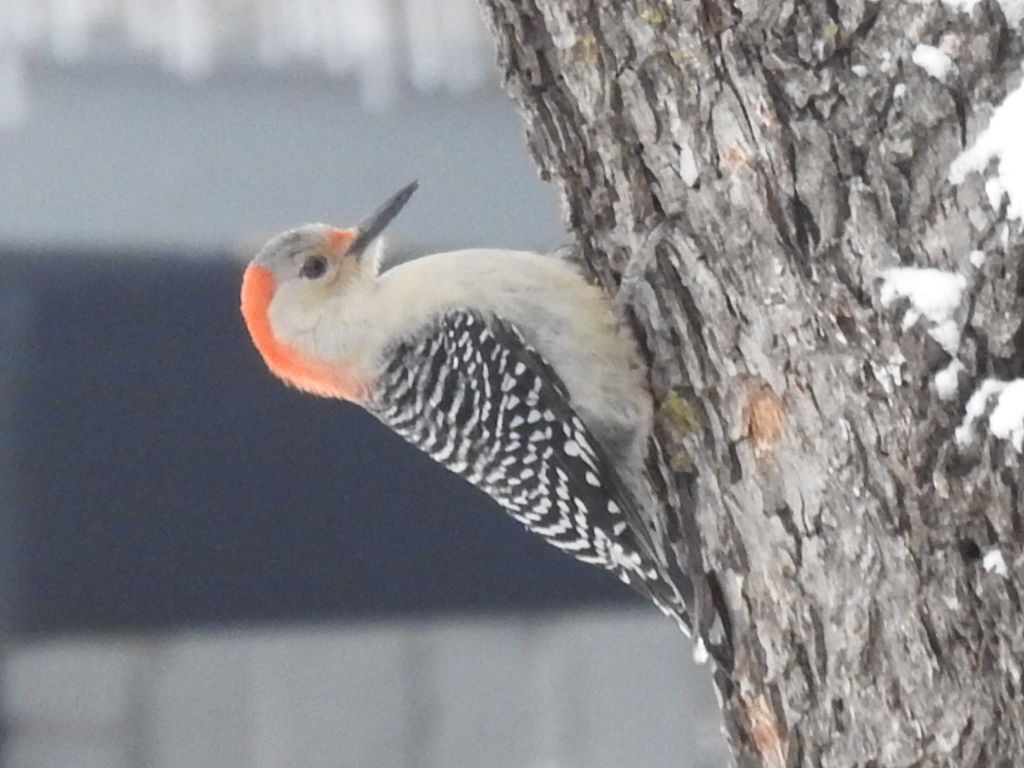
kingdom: Animalia
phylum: Chordata
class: Aves
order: Piciformes
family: Picidae
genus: Melanerpes
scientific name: Melanerpes carolinus
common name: Red-bellied woodpecker
